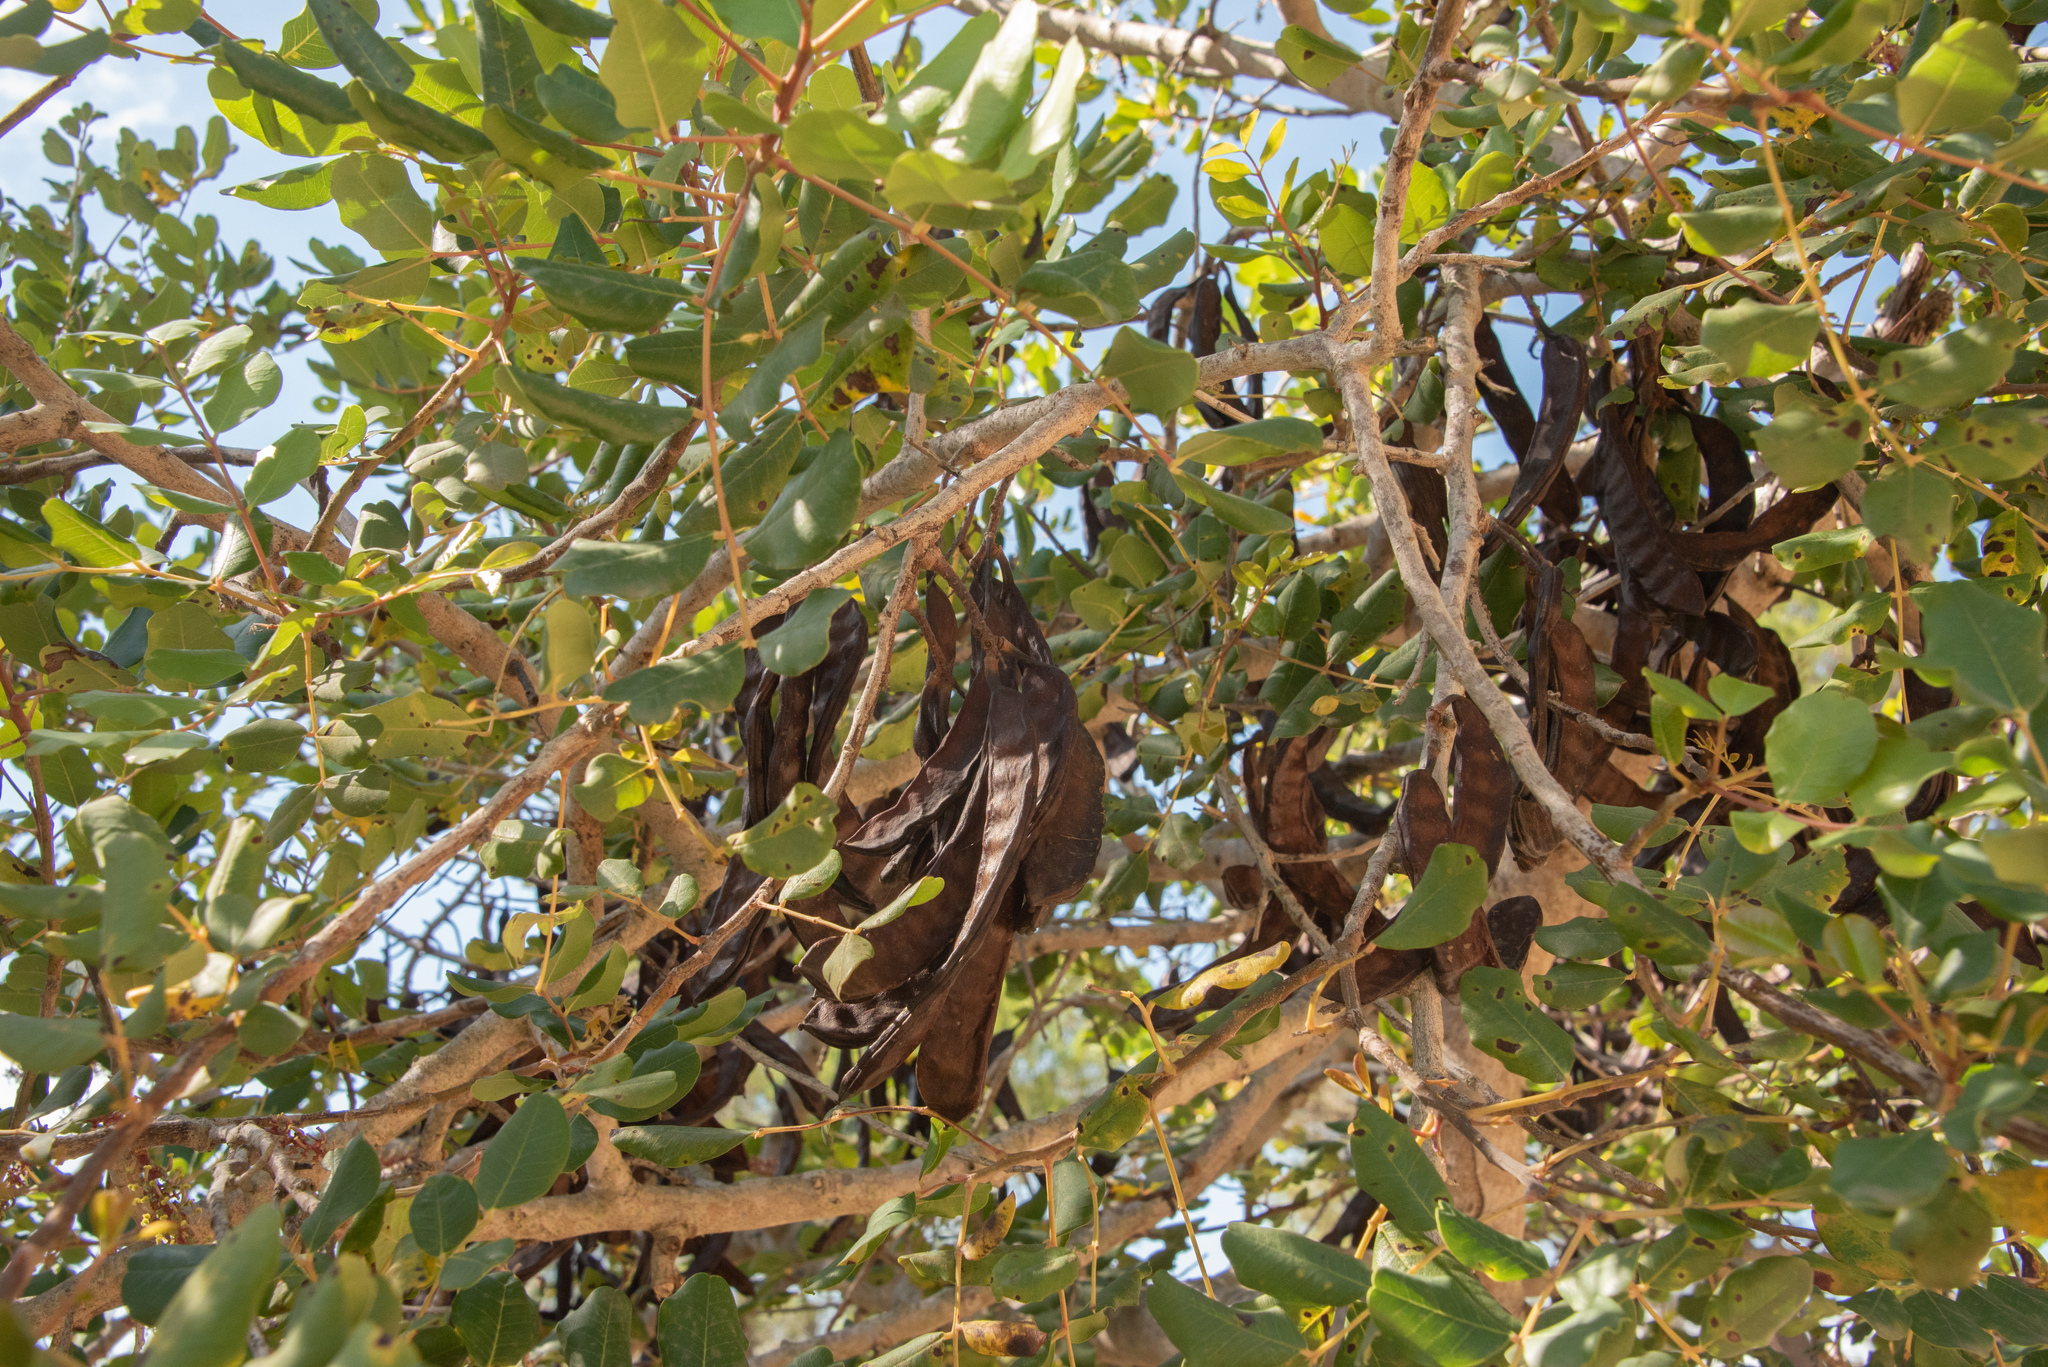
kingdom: Plantae
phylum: Tracheophyta
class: Magnoliopsida
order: Fabales
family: Fabaceae
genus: Ceratonia
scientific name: Ceratonia siliqua
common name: Carob
